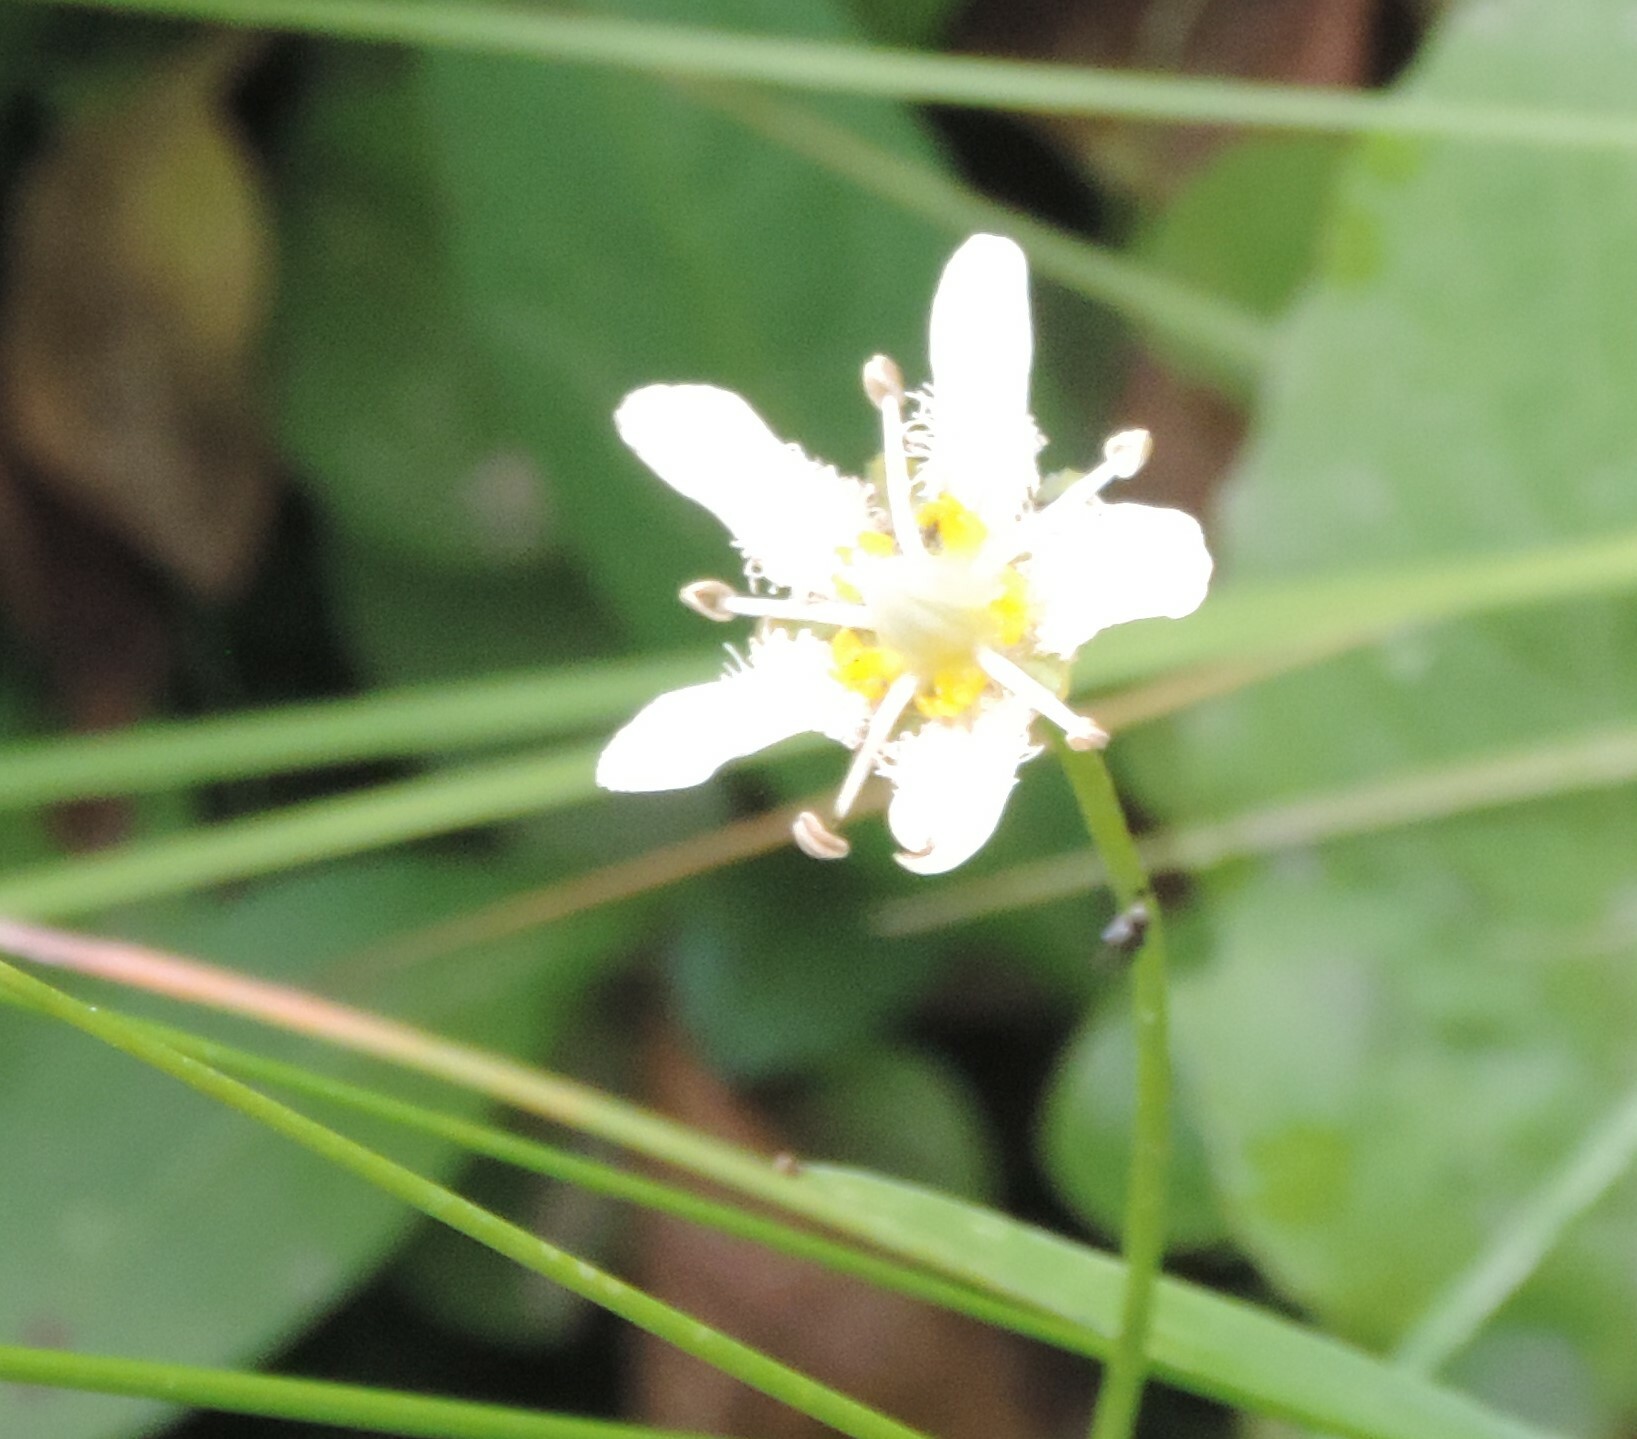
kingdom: Plantae
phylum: Tracheophyta
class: Magnoliopsida
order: Celastrales
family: Parnassiaceae
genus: Parnassia
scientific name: Parnassia fimbriata
